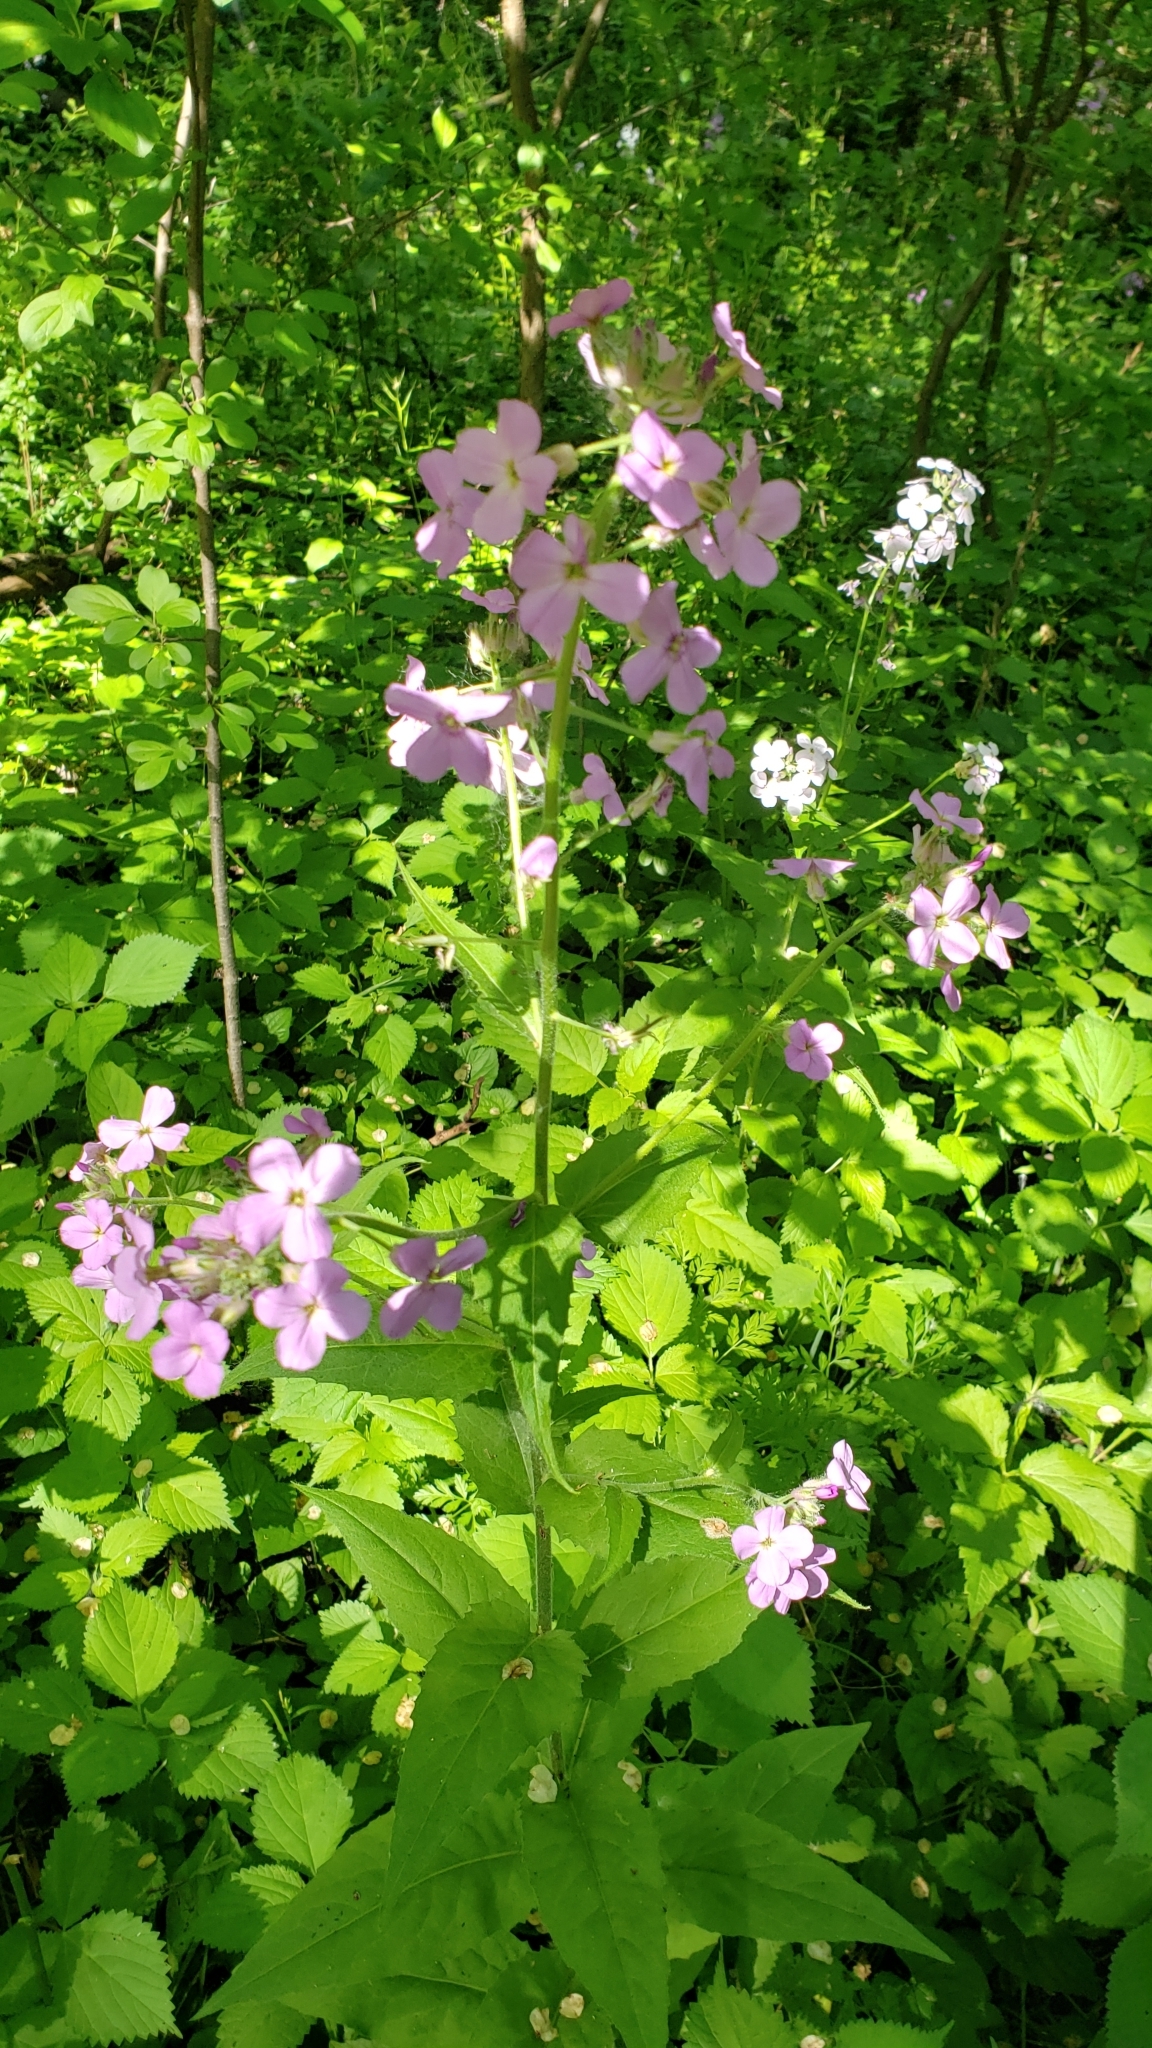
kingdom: Plantae
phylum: Tracheophyta
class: Magnoliopsida
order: Brassicales
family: Brassicaceae
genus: Hesperis
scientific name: Hesperis matronalis
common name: Dame's-violet
